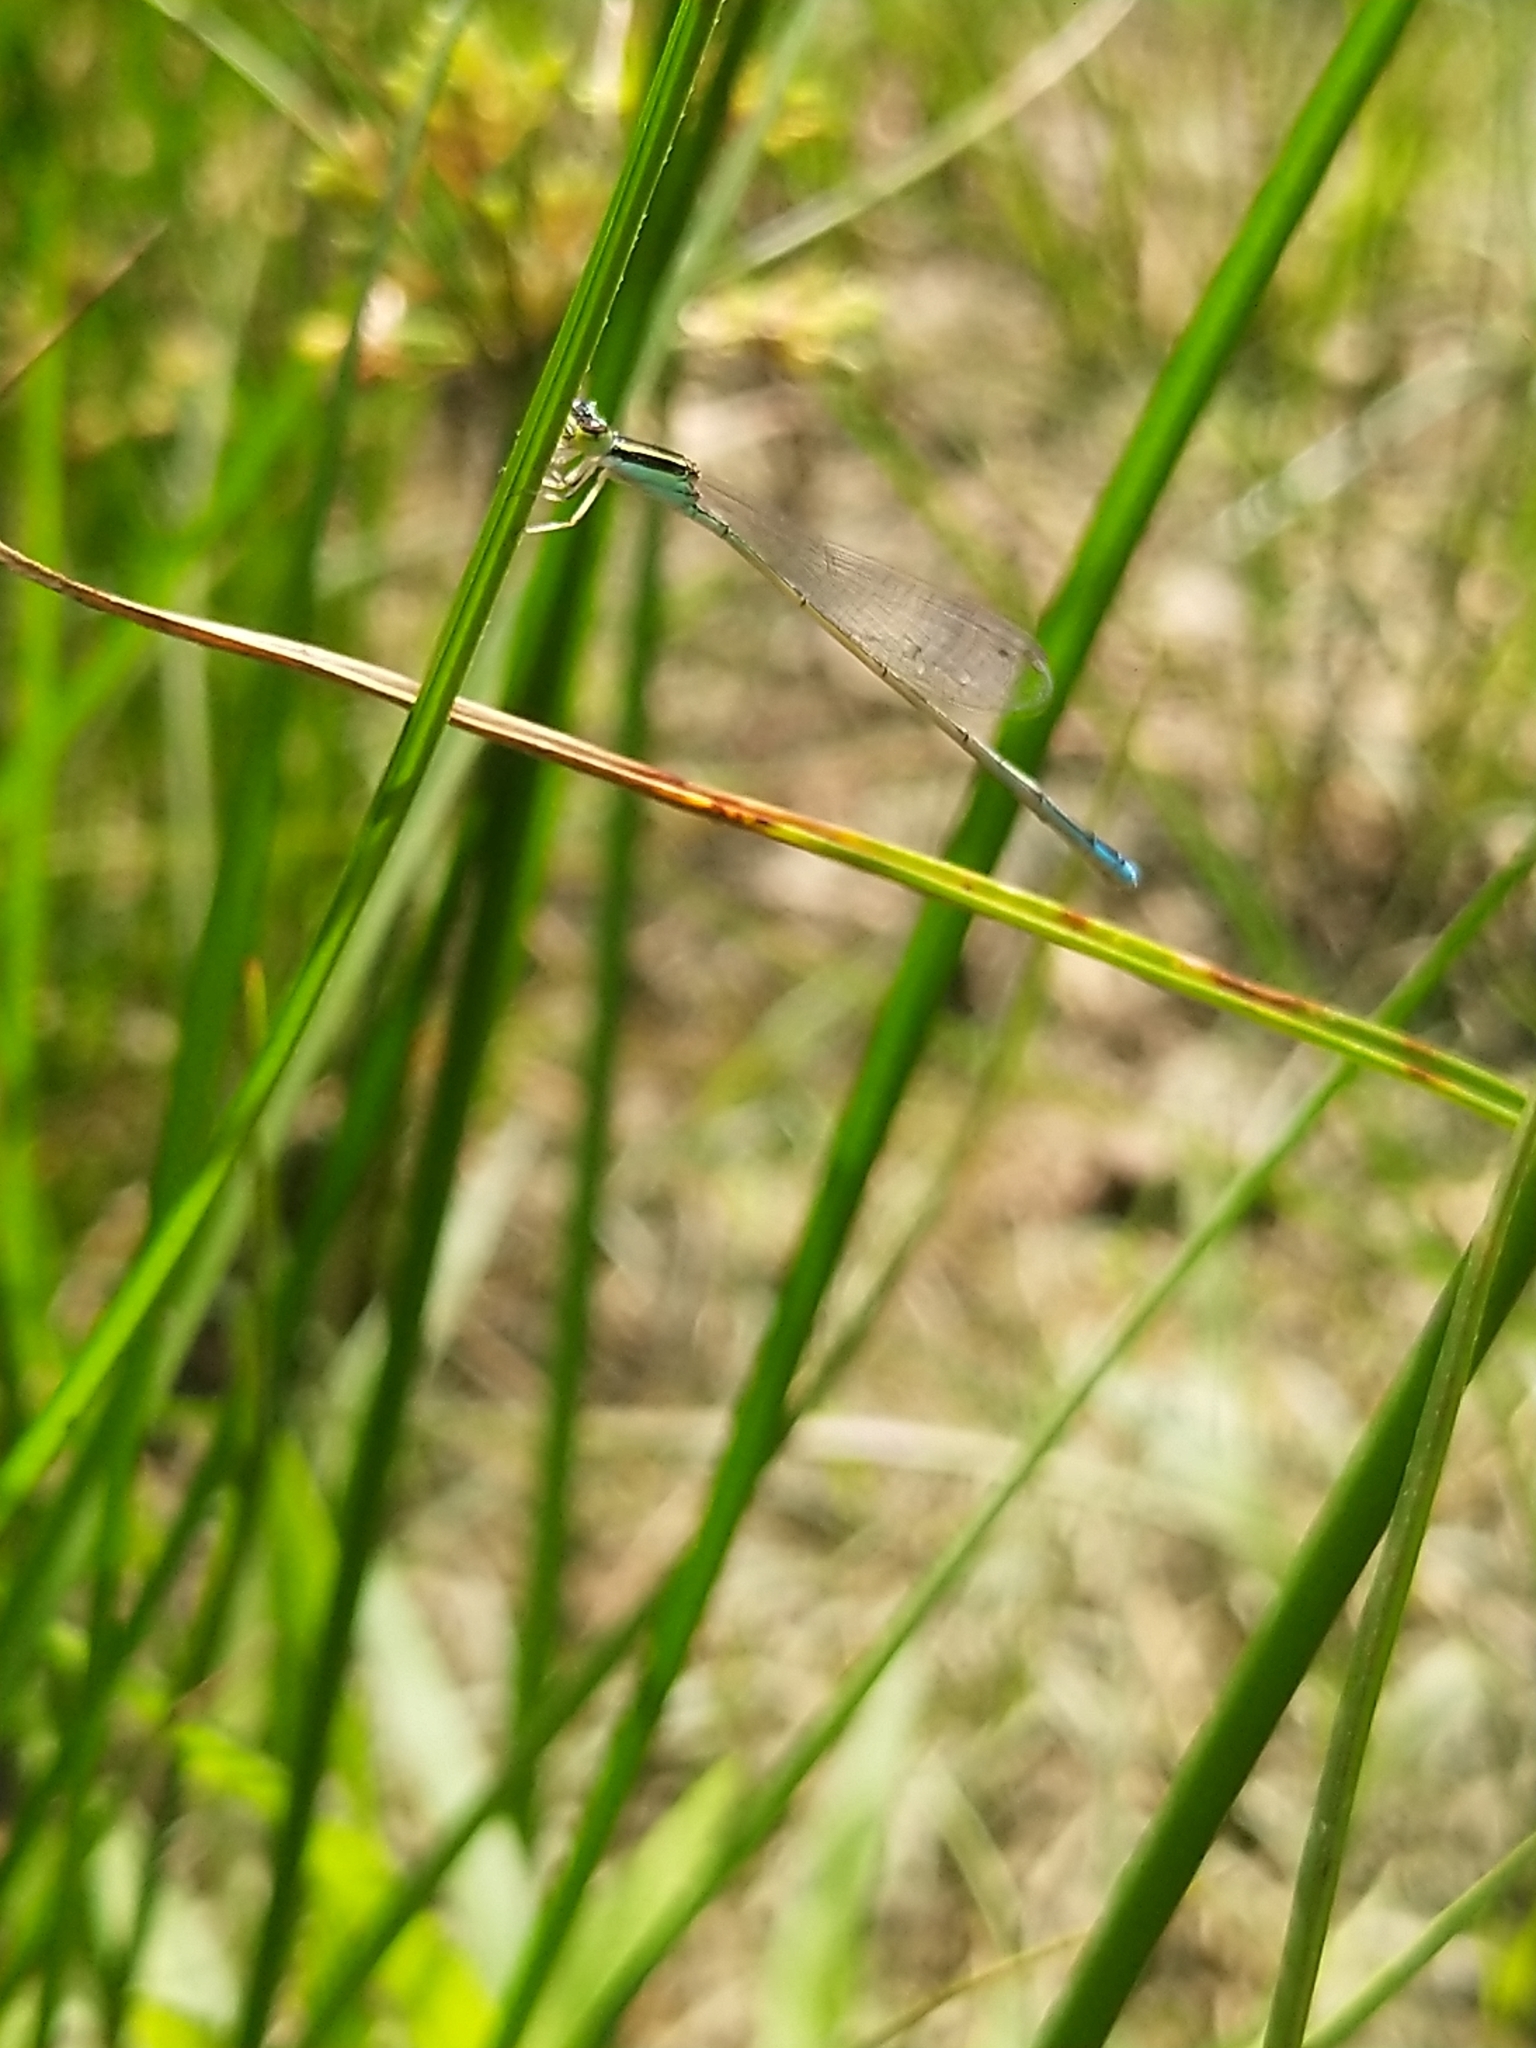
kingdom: Animalia
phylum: Arthropoda
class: Insecta
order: Odonata
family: Coenagrionidae
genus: Aciagrion
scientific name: Aciagrion occidentale
